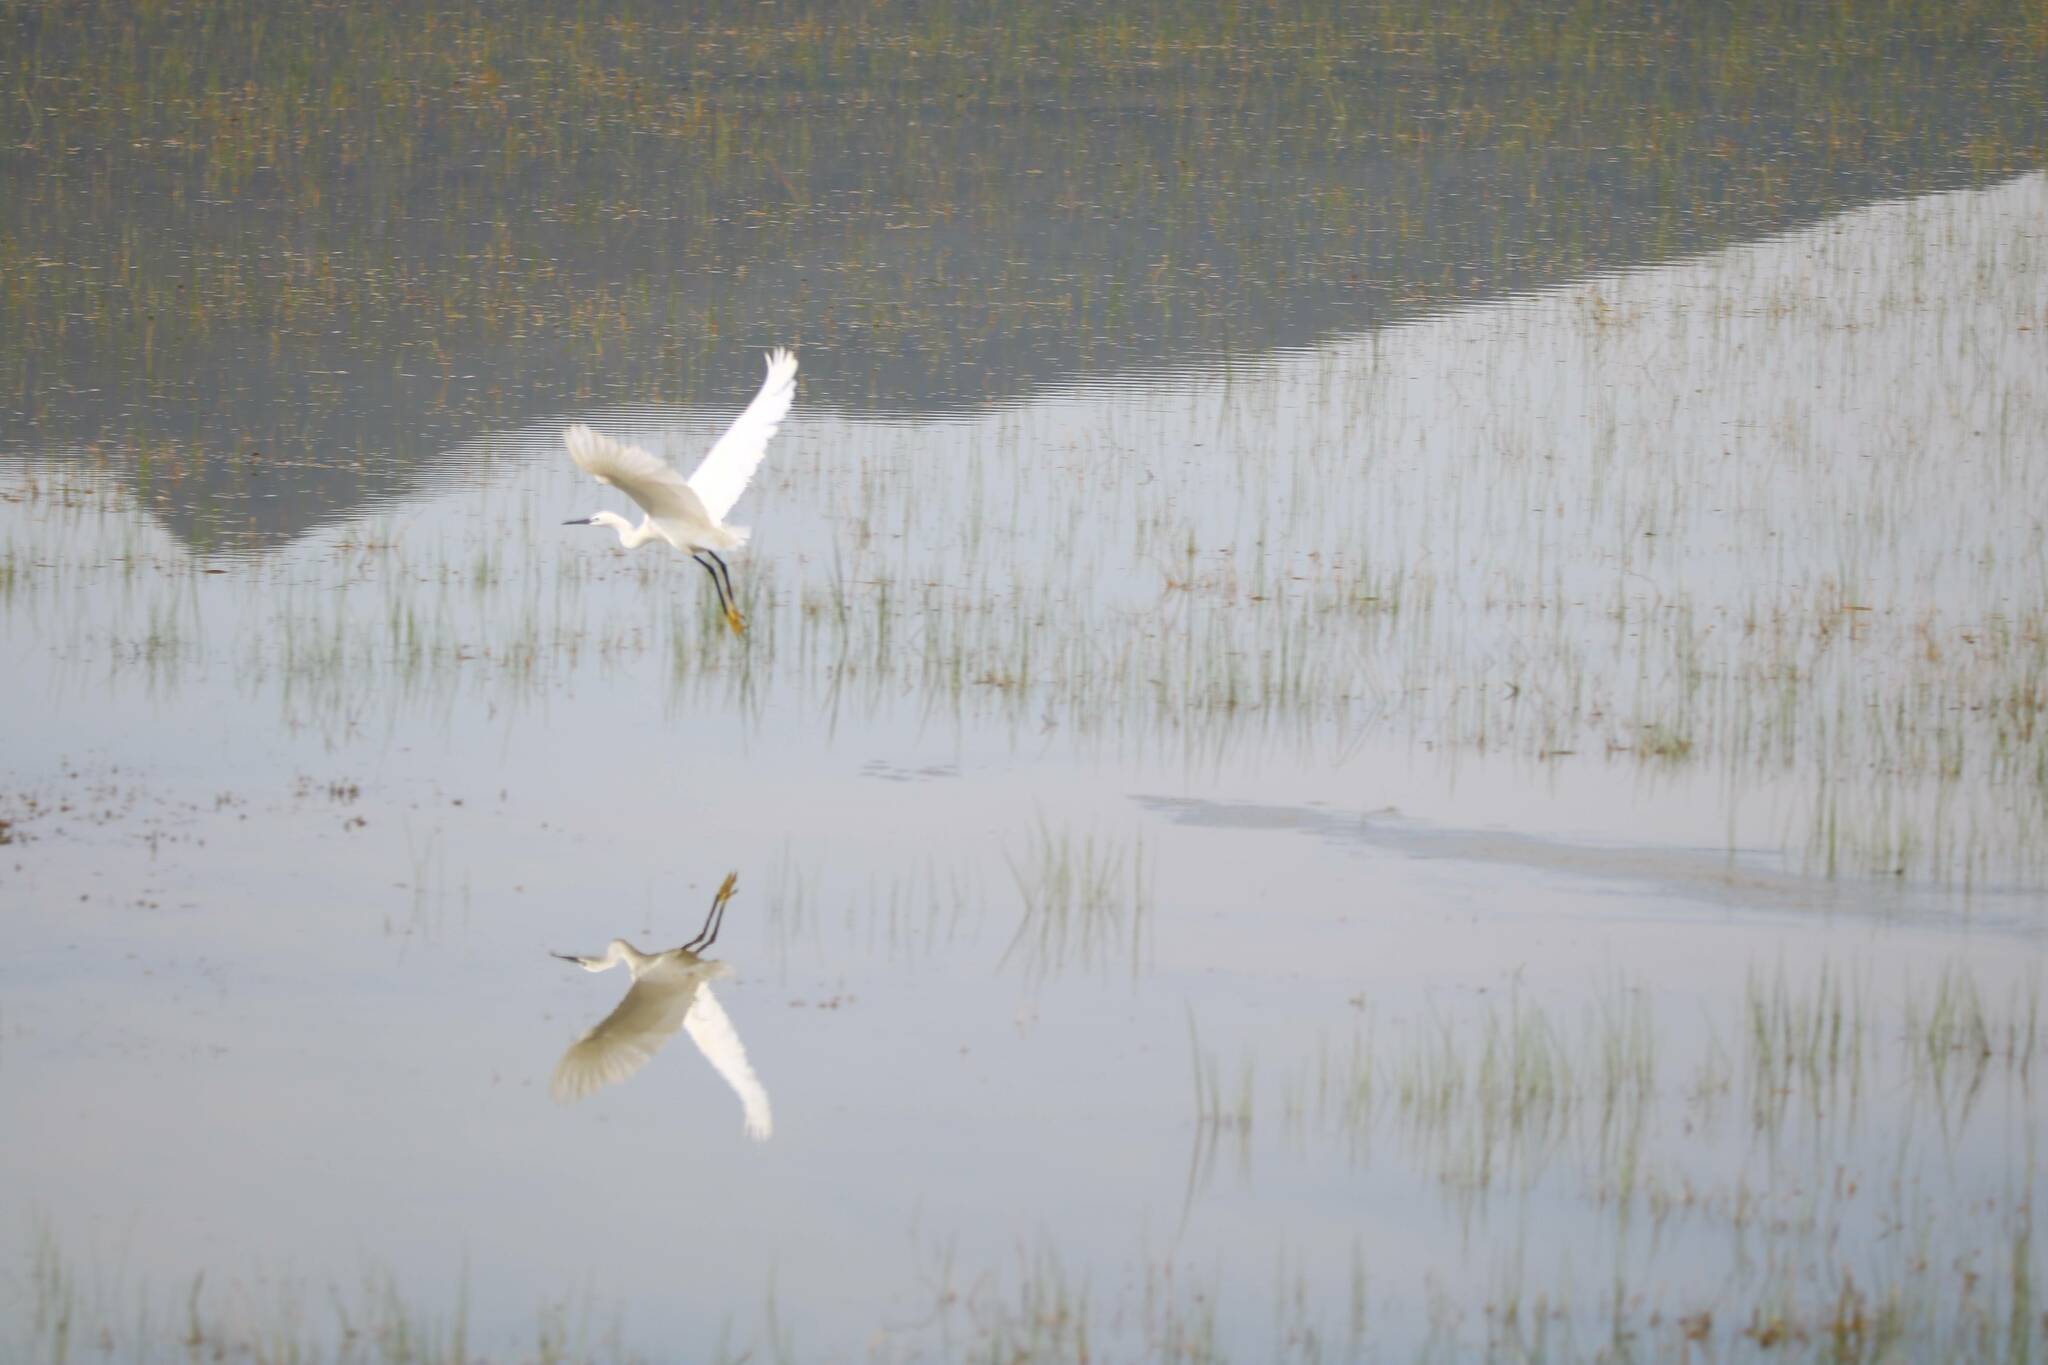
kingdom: Animalia
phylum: Chordata
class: Aves
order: Pelecaniformes
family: Ardeidae
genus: Egretta
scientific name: Egretta garzetta
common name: Little egret
